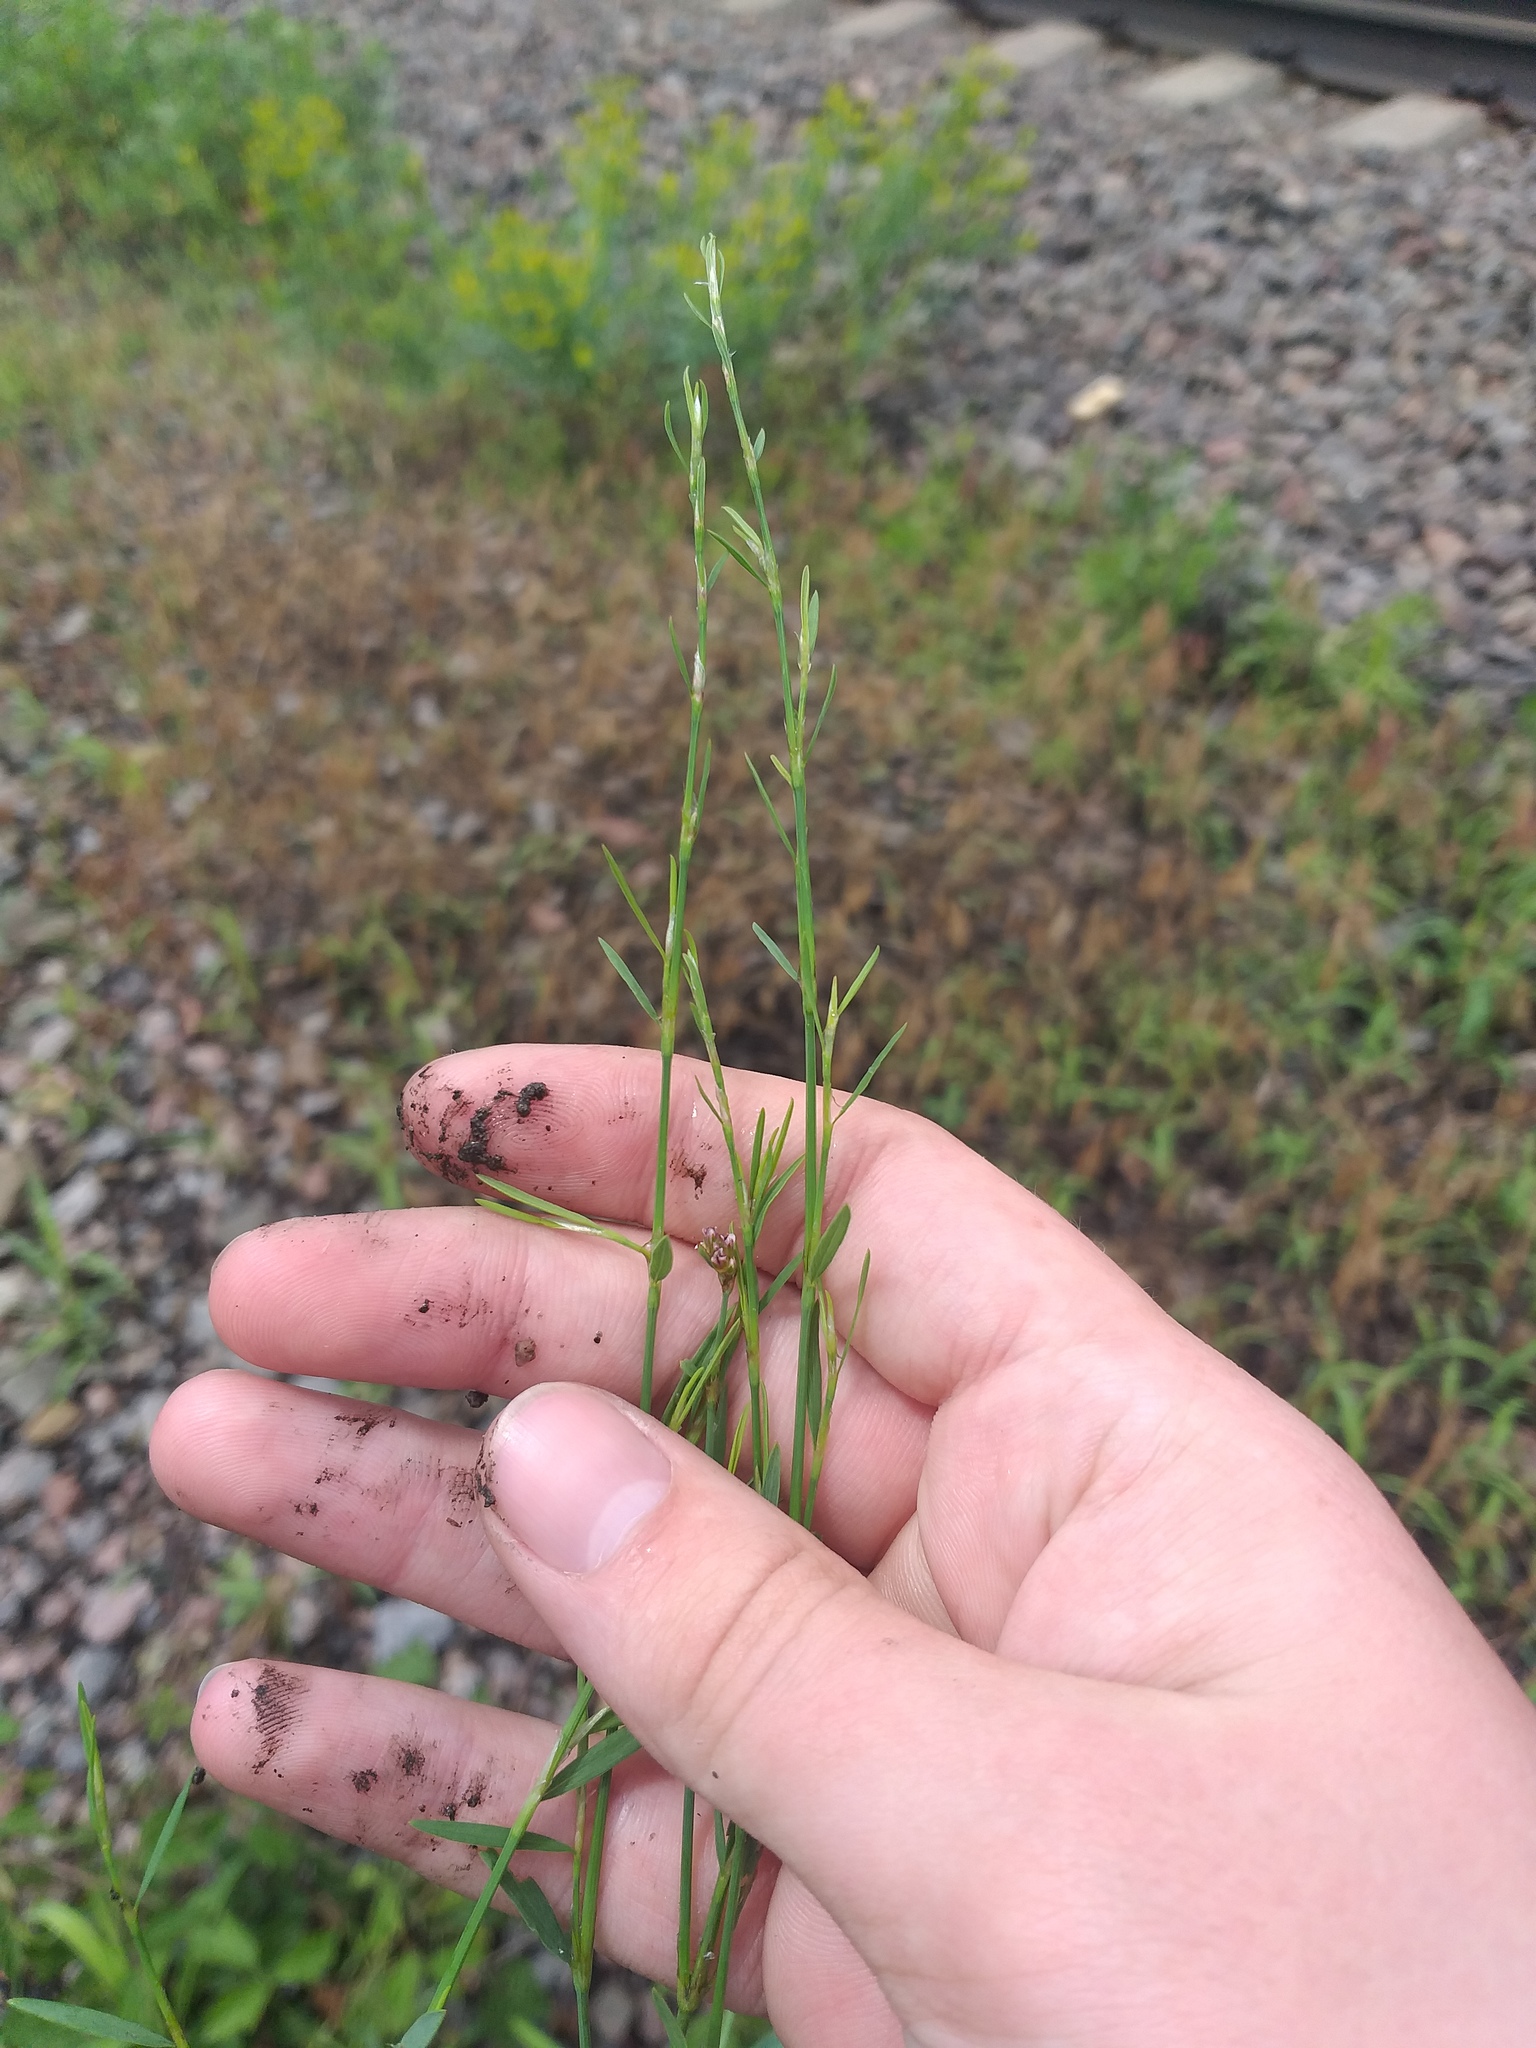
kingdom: Plantae
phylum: Tracheophyta
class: Magnoliopsida
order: Caryophyllales
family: Polygonaceae
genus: Polygonum
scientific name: Polygonum
